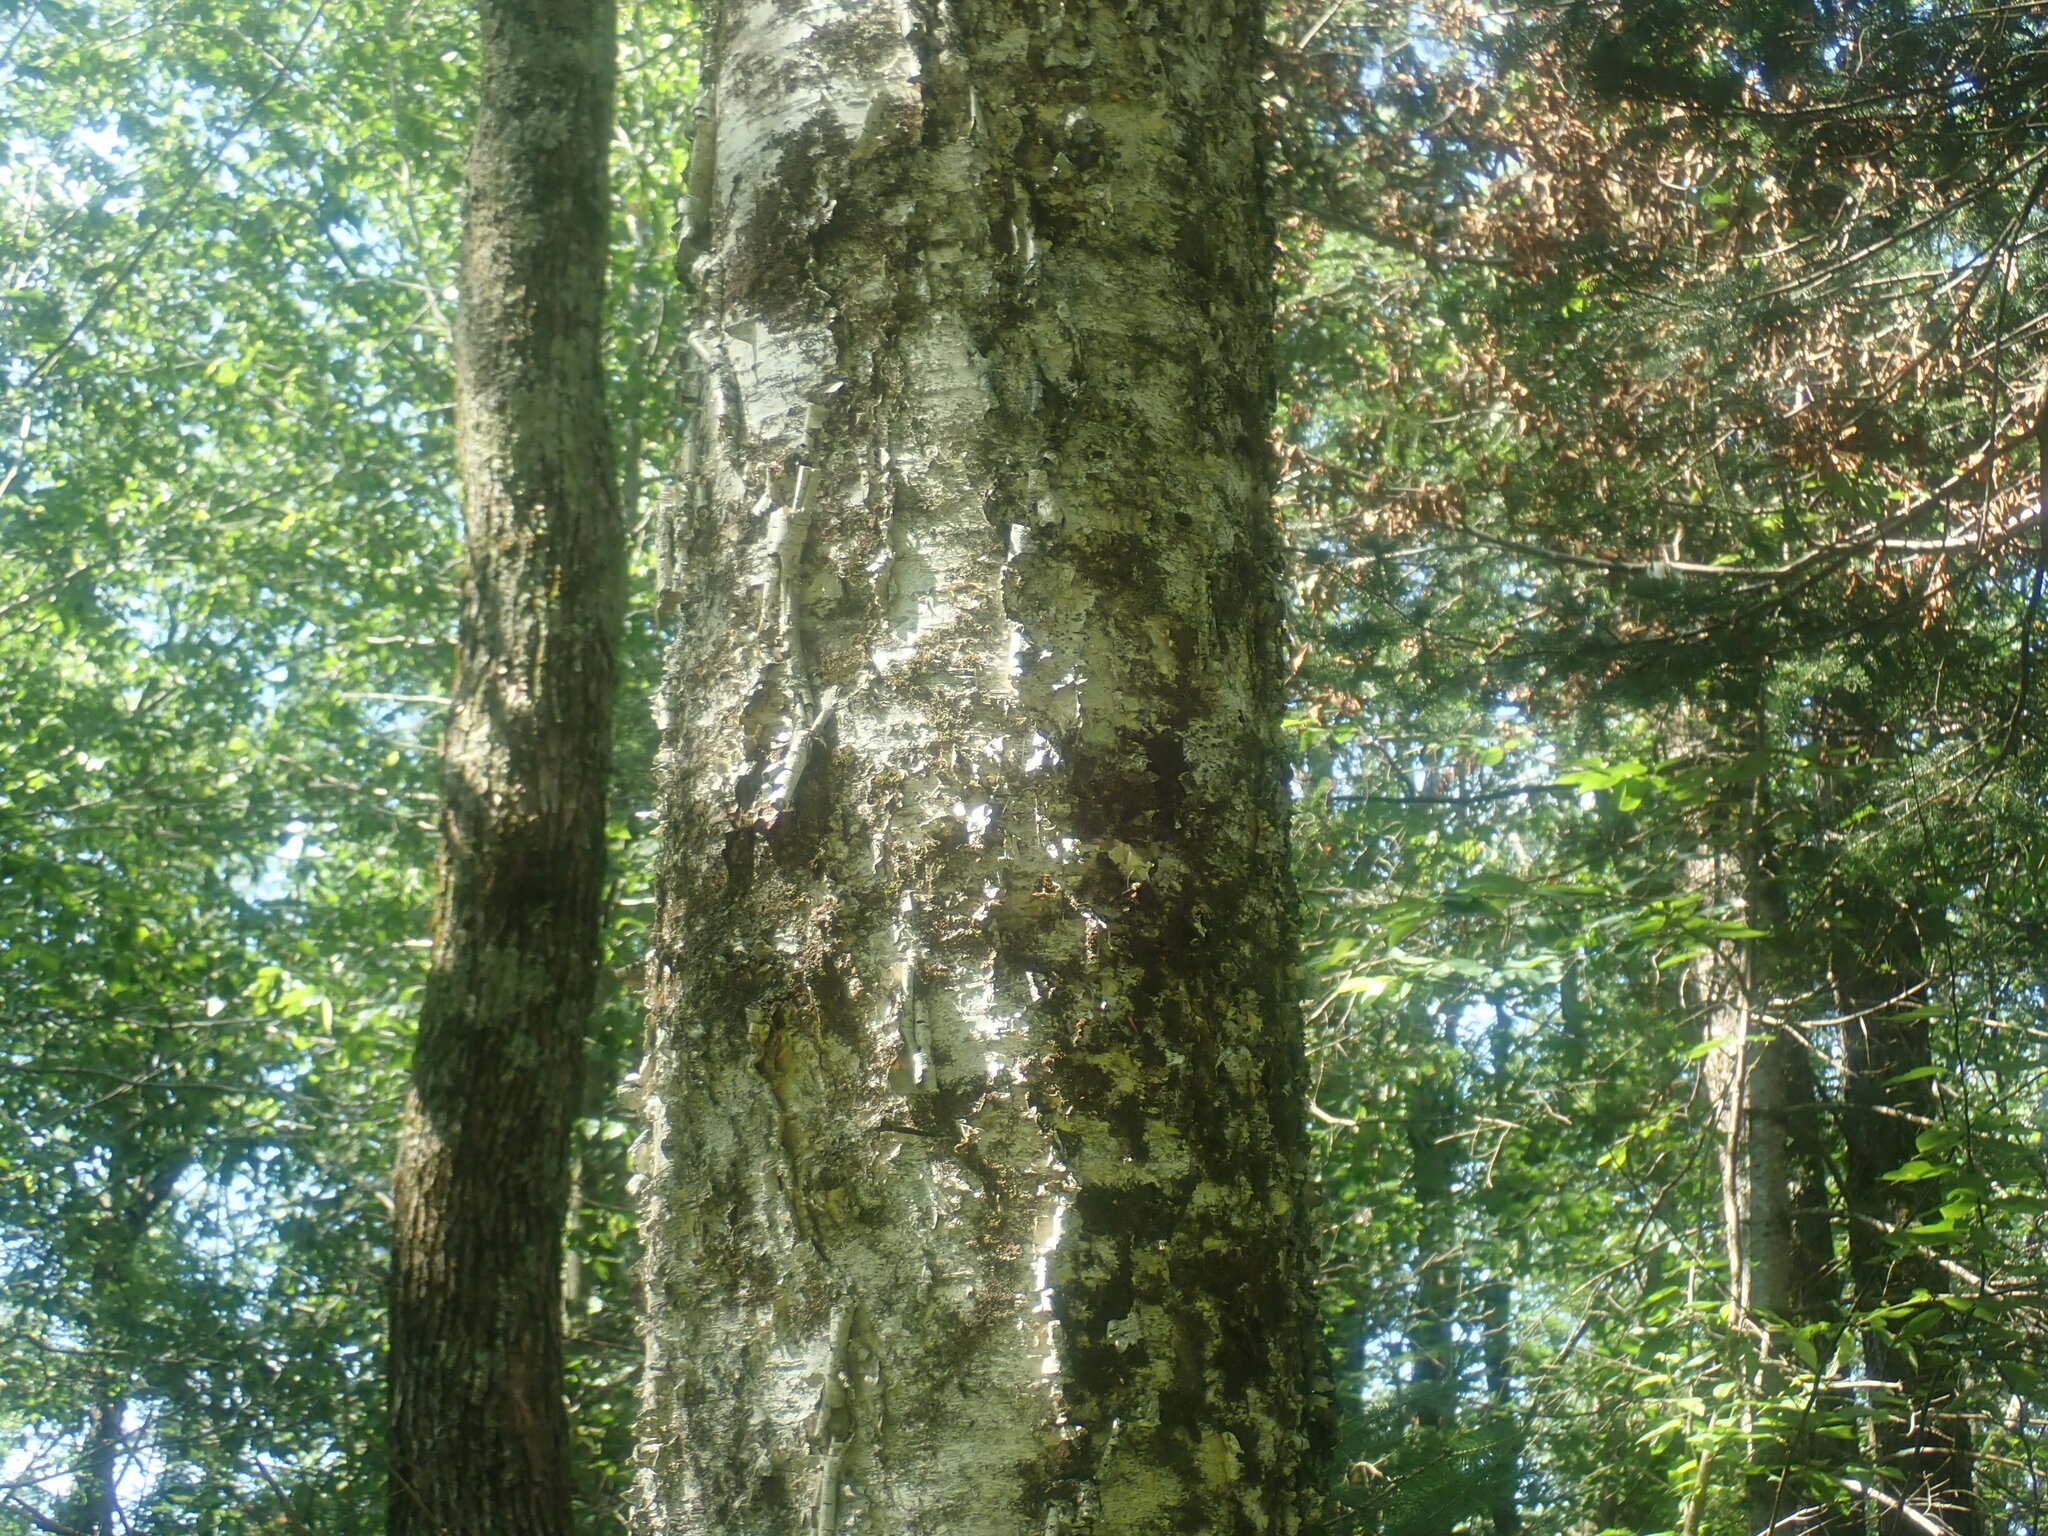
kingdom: Plantae
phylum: Tracheophyta
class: Magnoliopsida
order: Fagales
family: Betulaceae
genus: Betula
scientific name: Betula alleghaniensis
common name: Yellow birch
